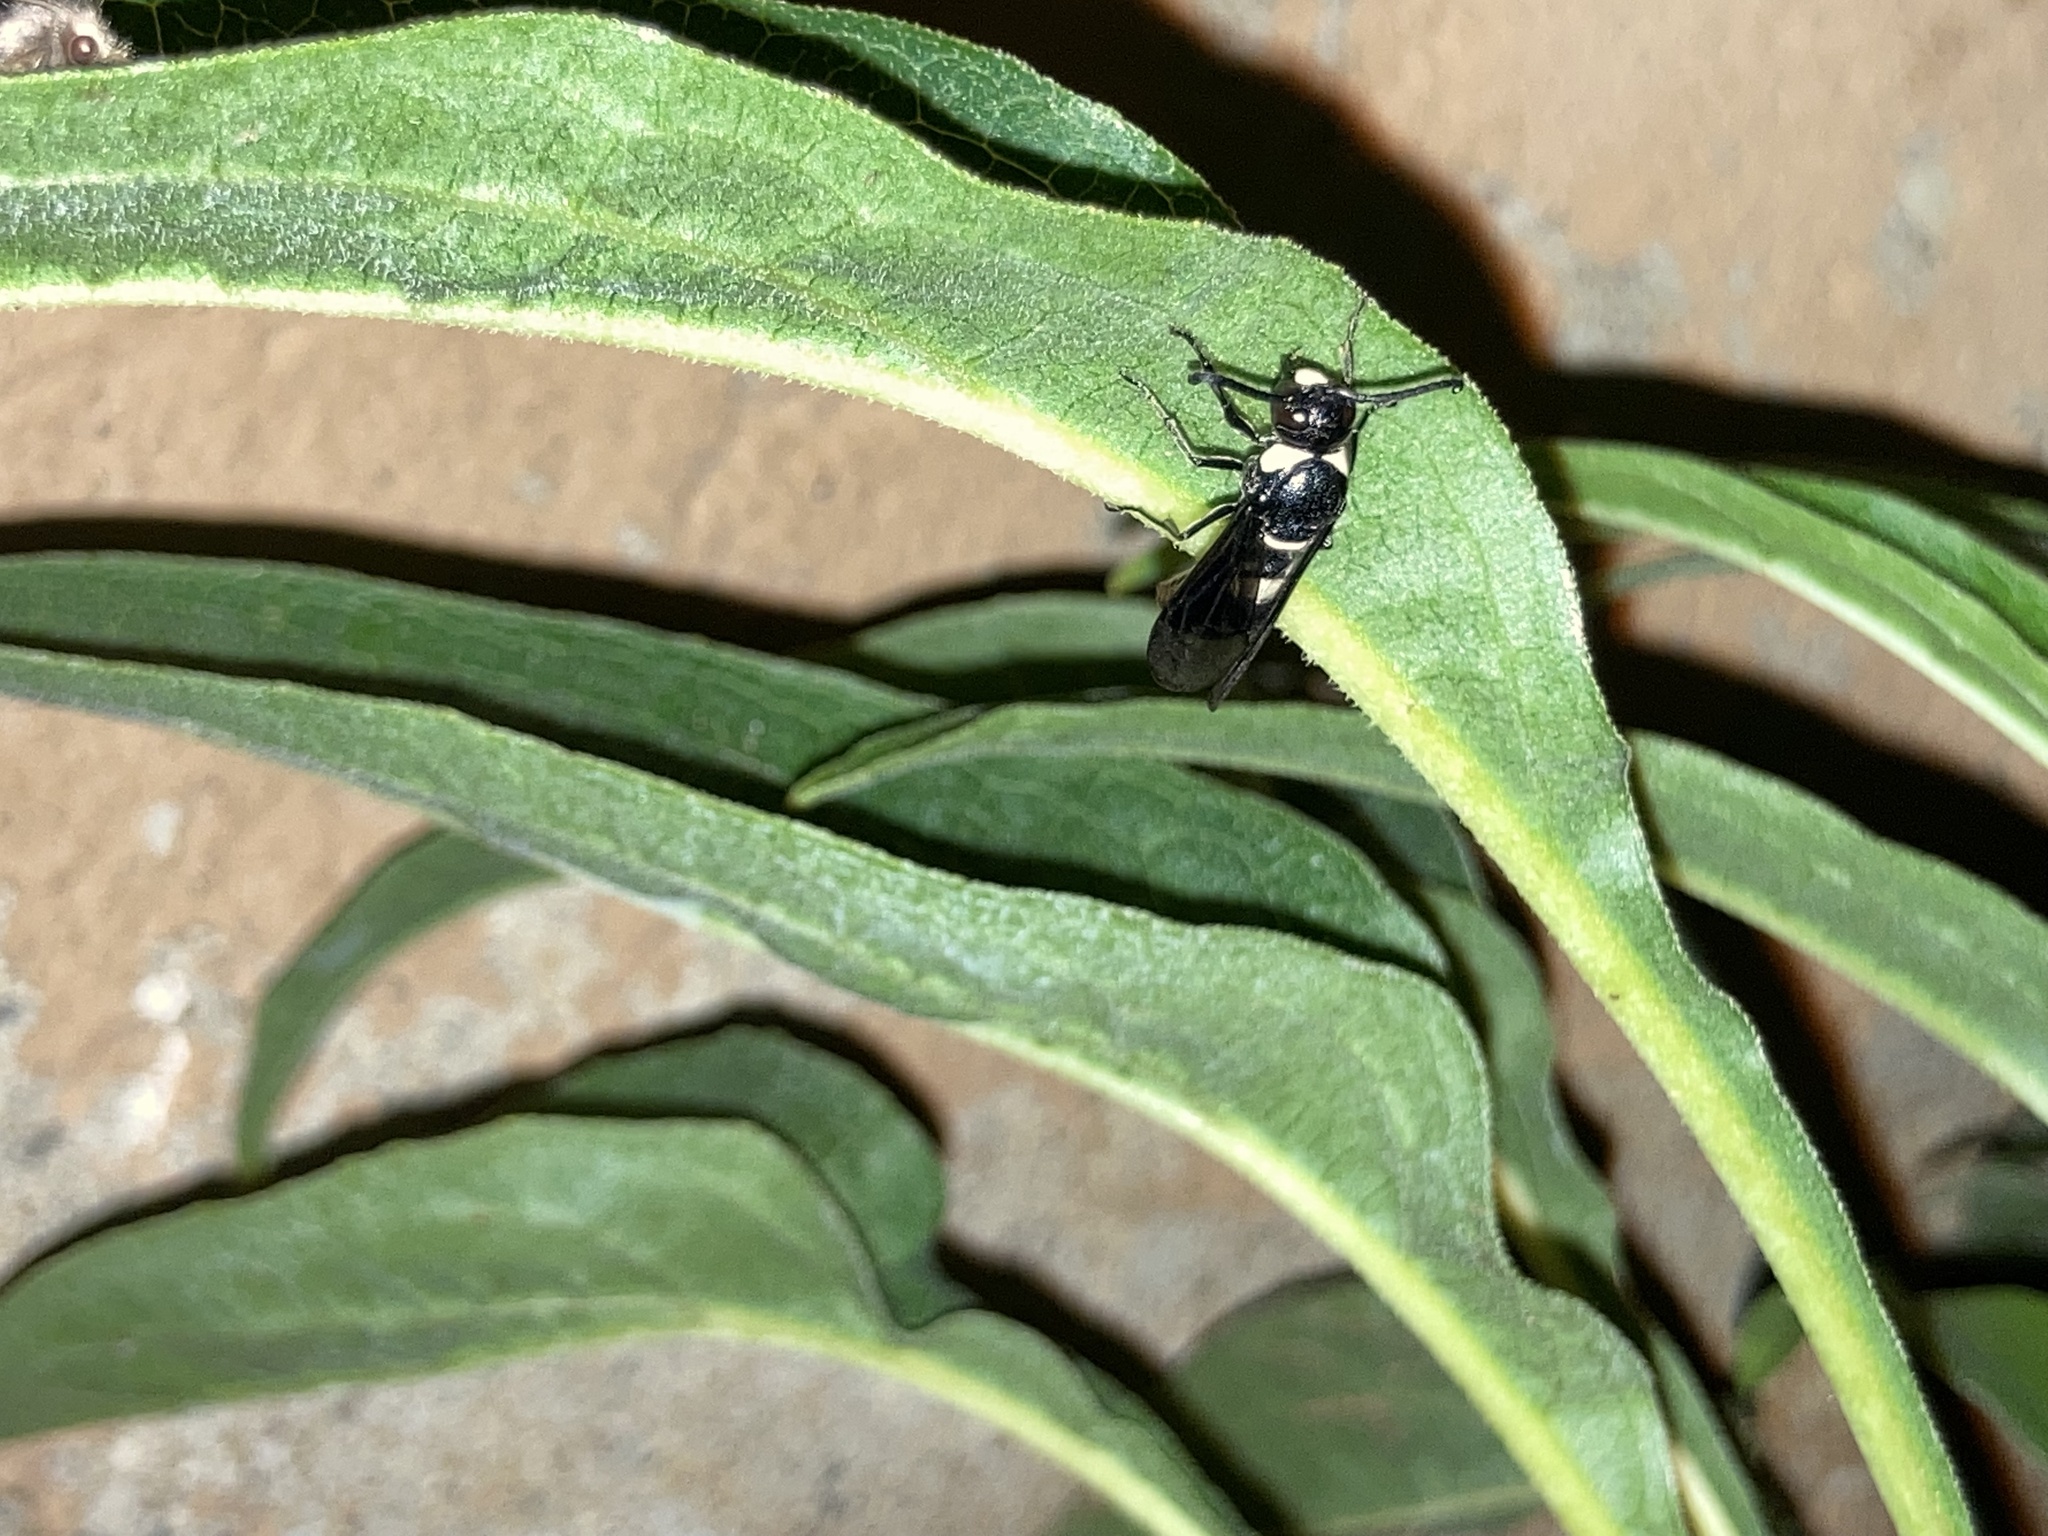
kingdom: Animalia
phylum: Arthropoda
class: Insecta
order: Hymenoptera
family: Eumenidae
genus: Monobia
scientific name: Monobia quadridens
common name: Four-toothed mason wasp
